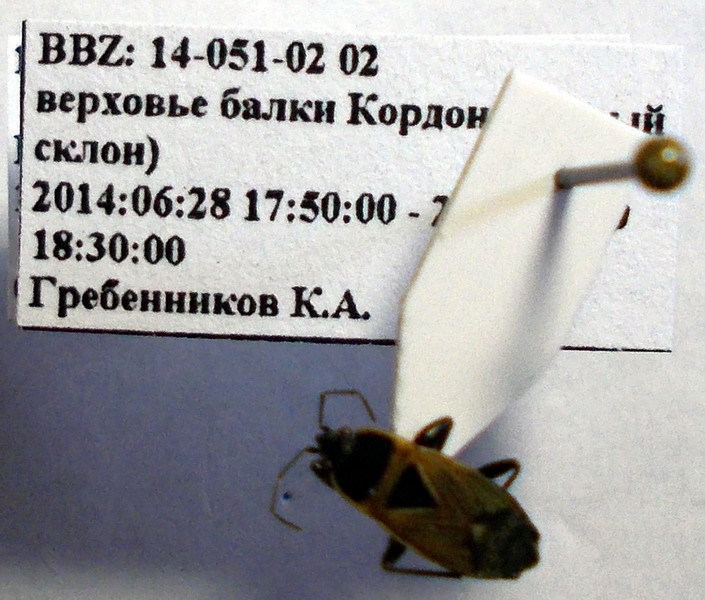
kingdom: Animalia
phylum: Arthropoda
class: Insecta
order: Hemiptera
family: Rhyparochromidae
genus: Bleteogonus
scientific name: Bleteogonus beckeri
